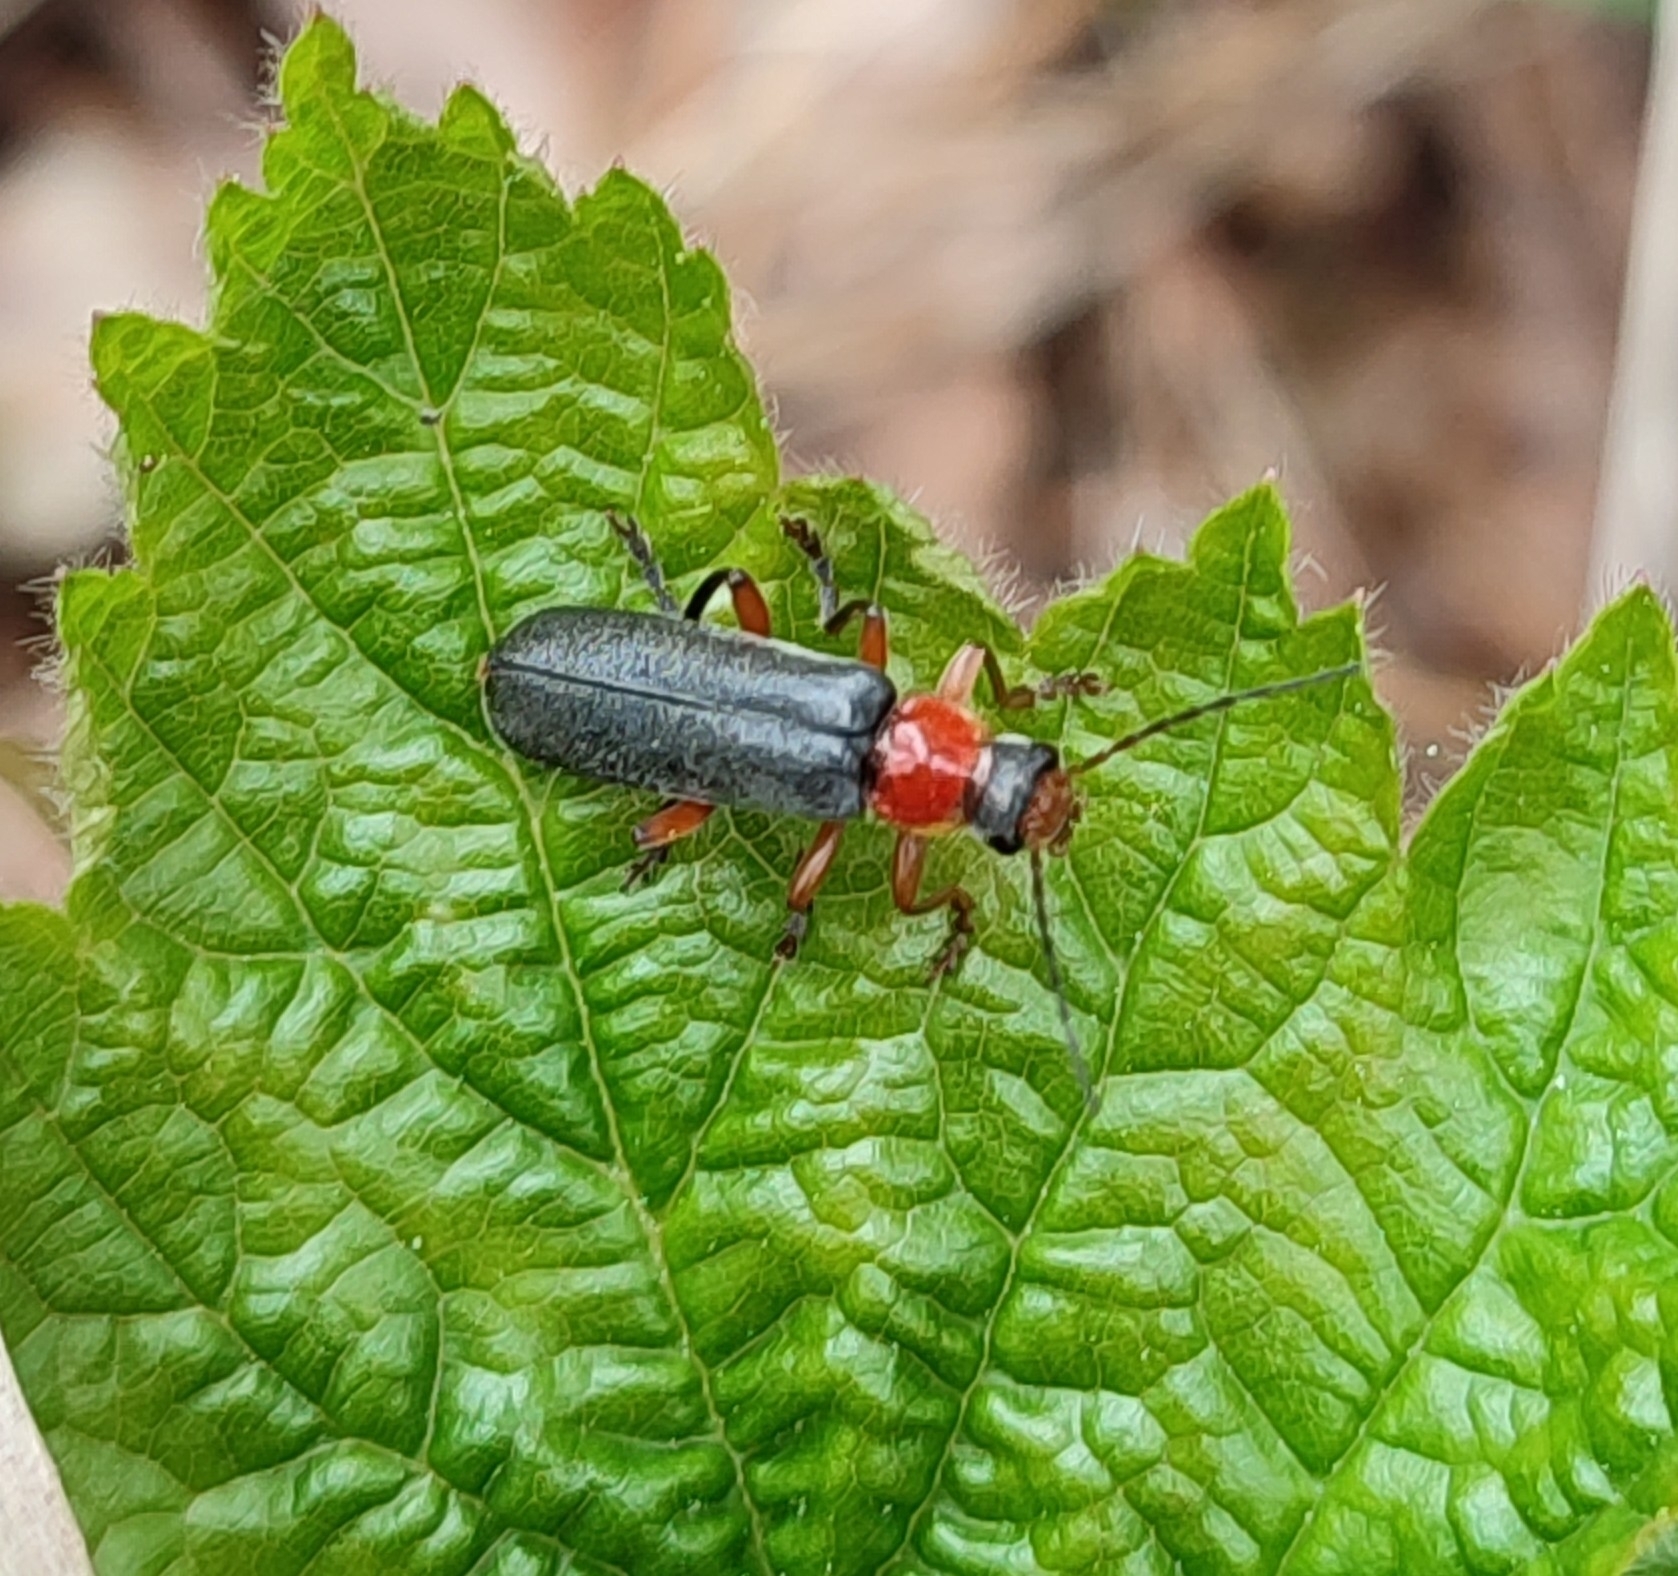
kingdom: Animalia
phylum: Arthropoda
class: Insecta
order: Coleoptera
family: Cantharidae
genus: Cantharis
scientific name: Cantharis pellucida
